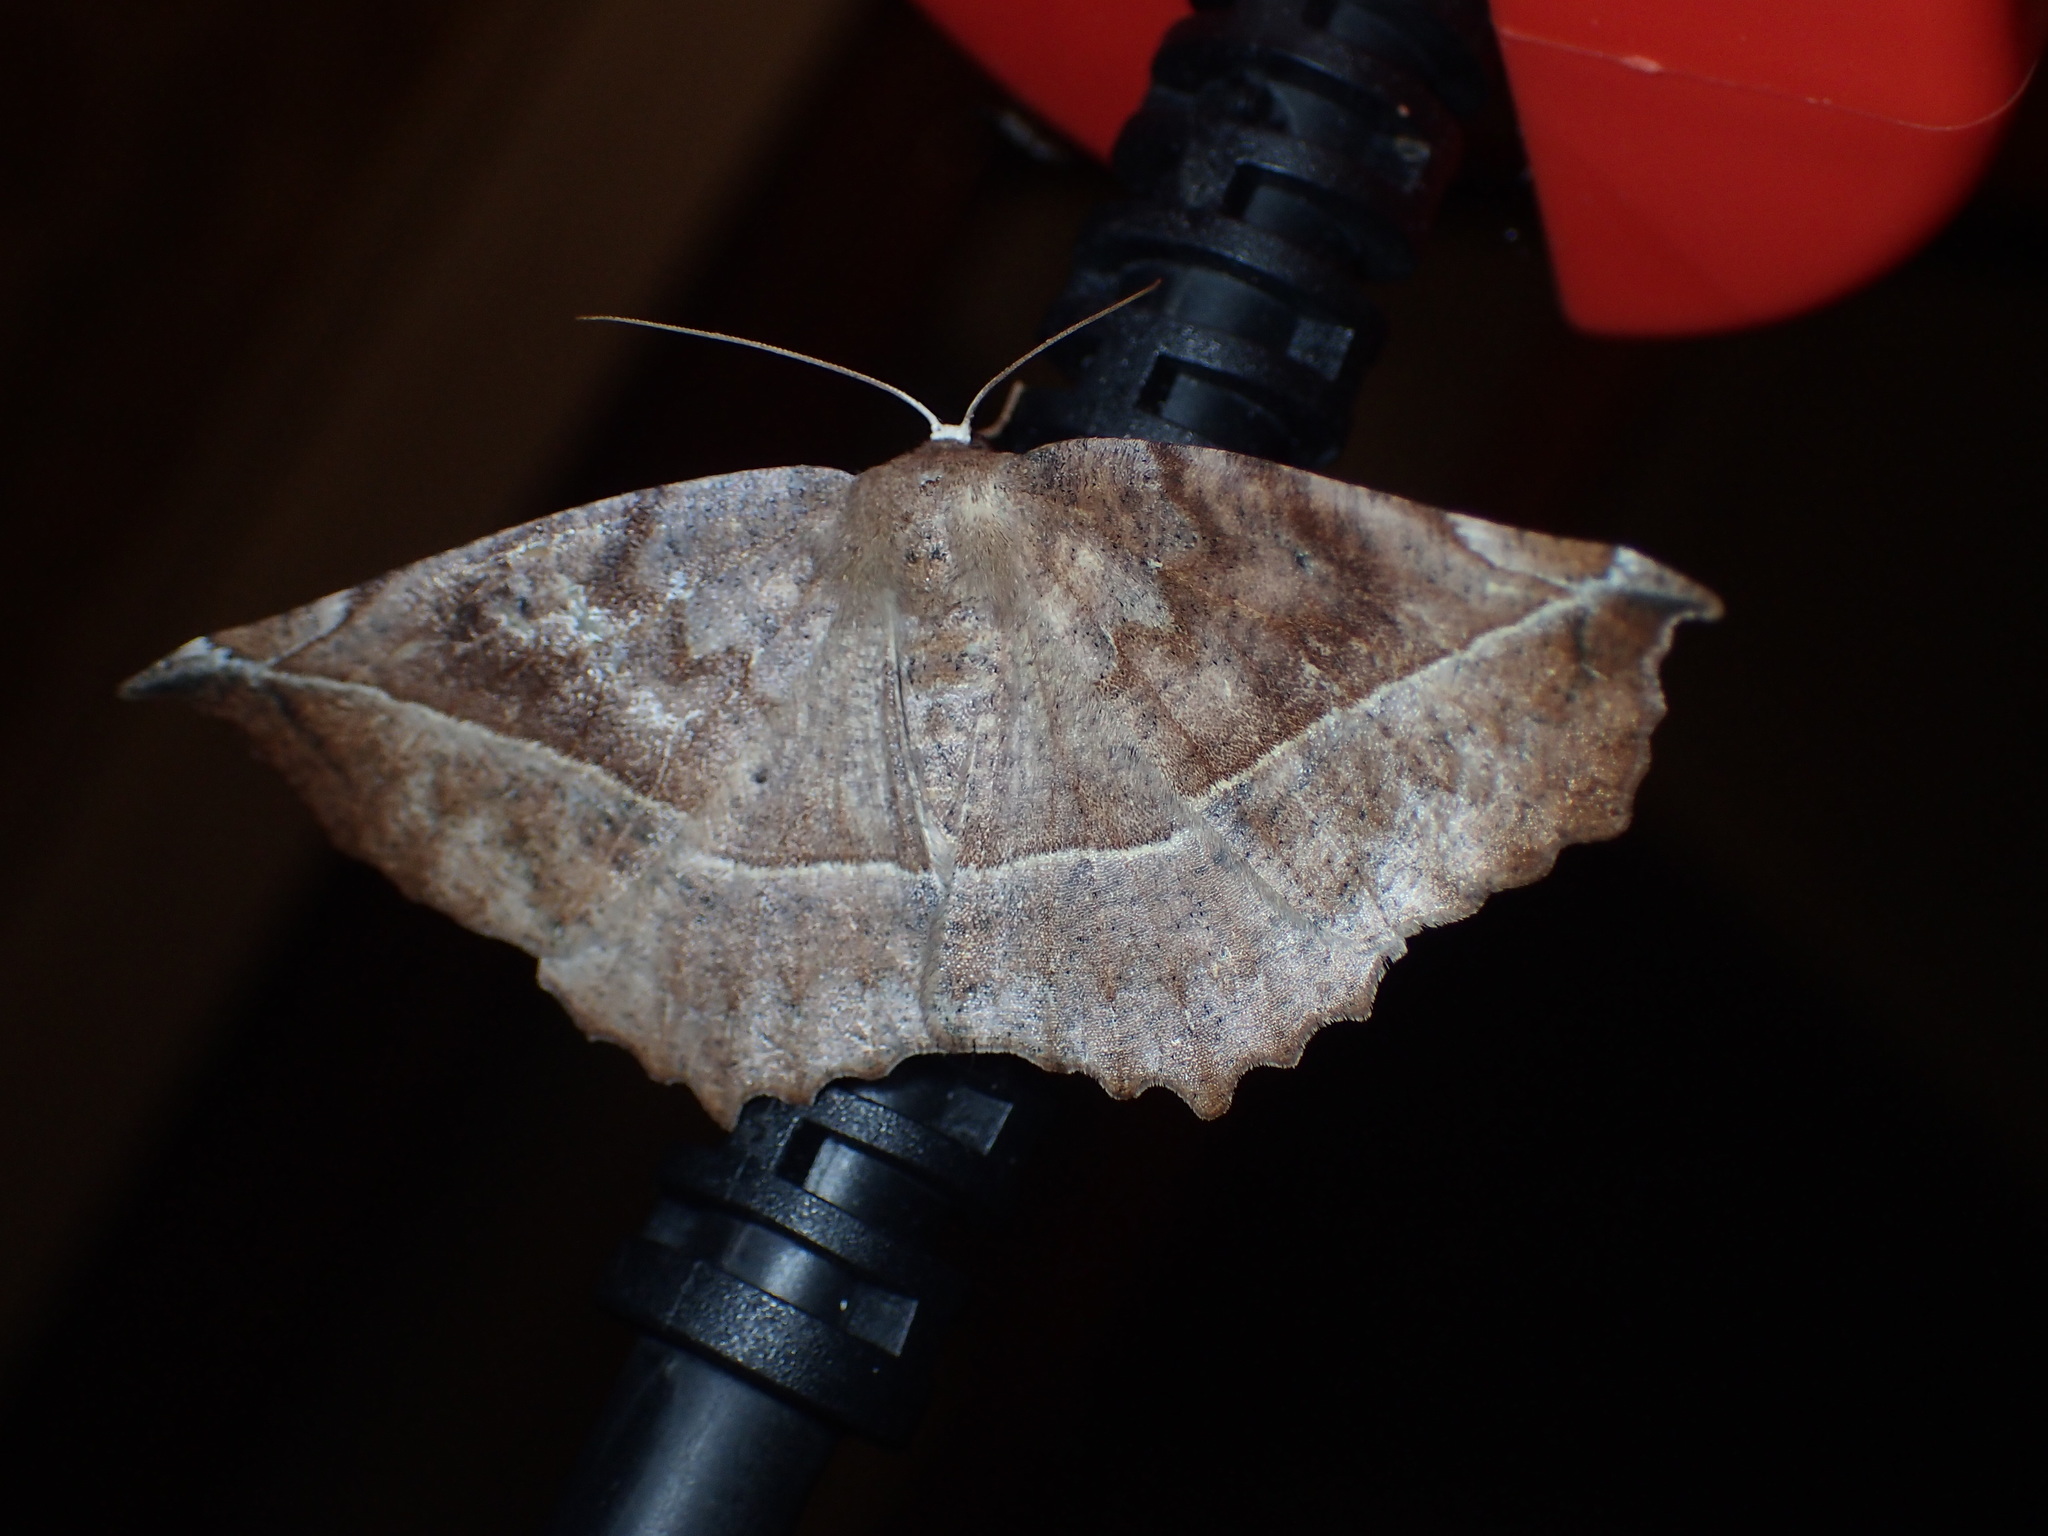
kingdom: Animalia
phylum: Arthropoda
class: Insecta
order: Lepidoptera
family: Geometridae
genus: Eutrapela
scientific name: Eutrapela clemataria
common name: Curved-toothed geometer
